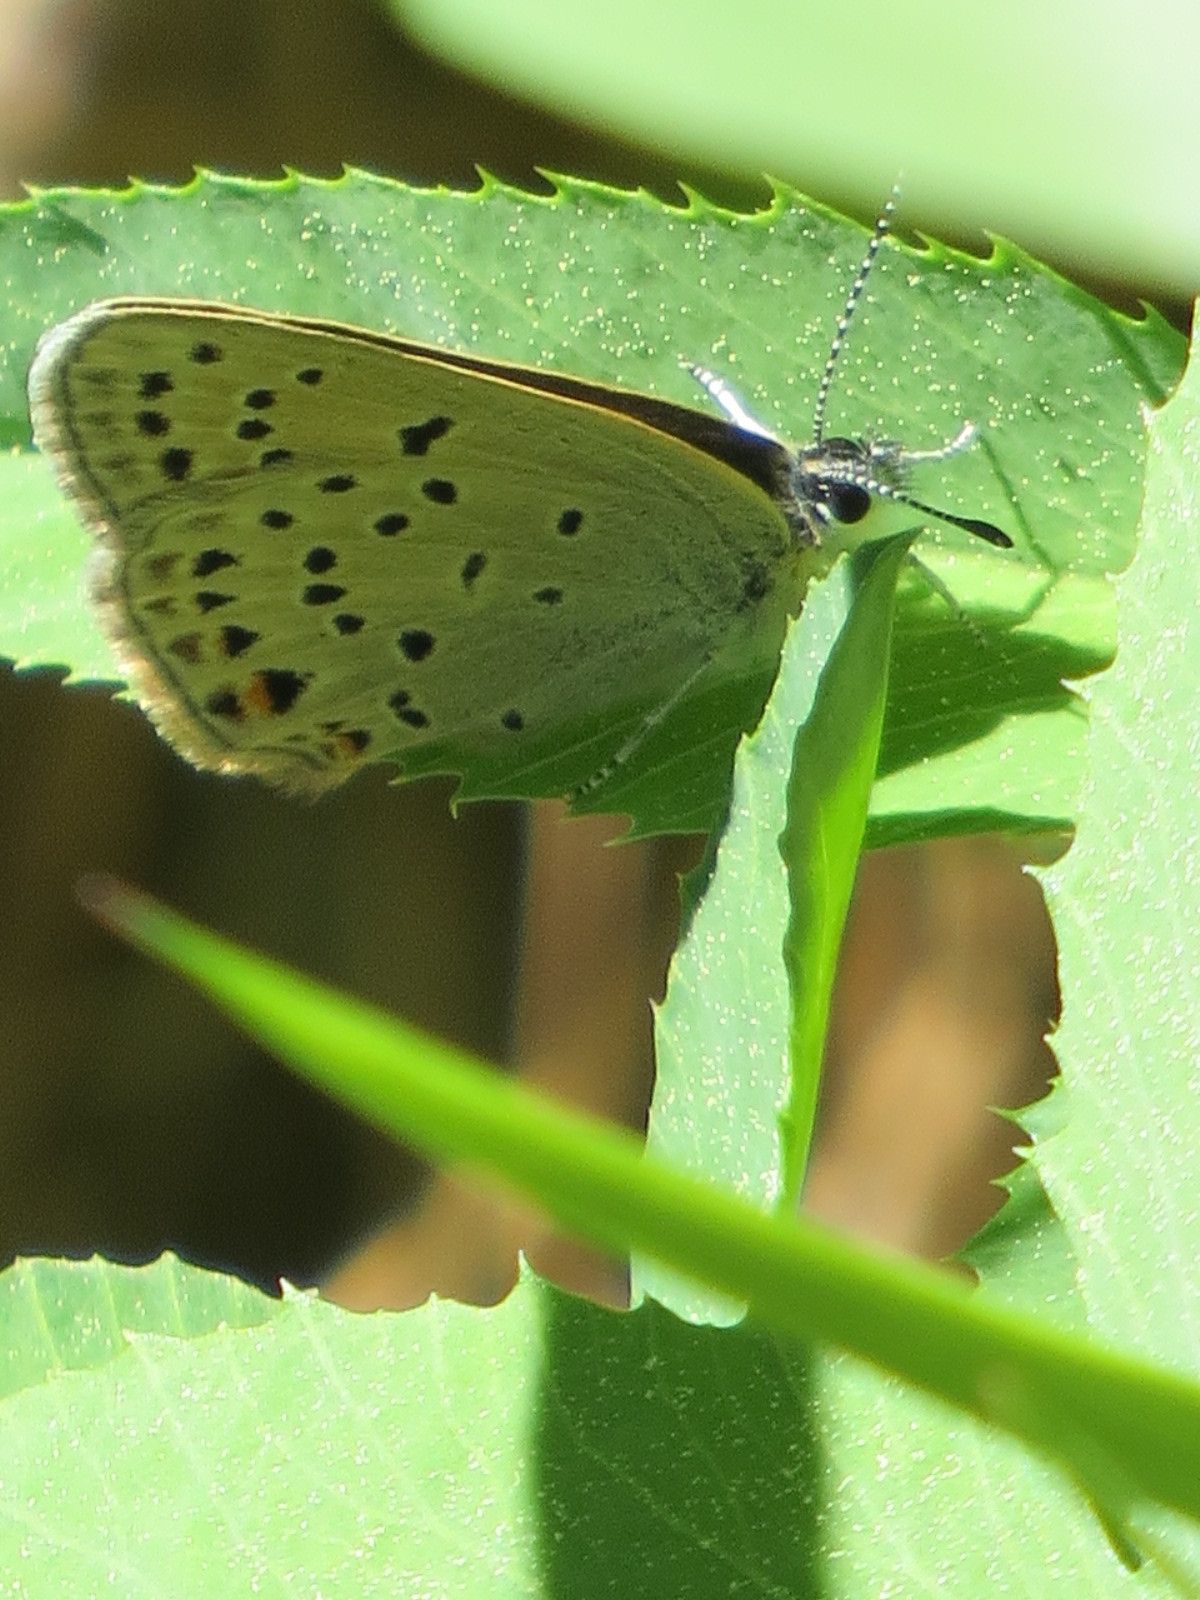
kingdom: Animalia
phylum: Arthropoda
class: Insecta
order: Lepidoptera
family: Lycaenidae
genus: Icaricia
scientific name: Icaricia saepiolus
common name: Greenish blue
